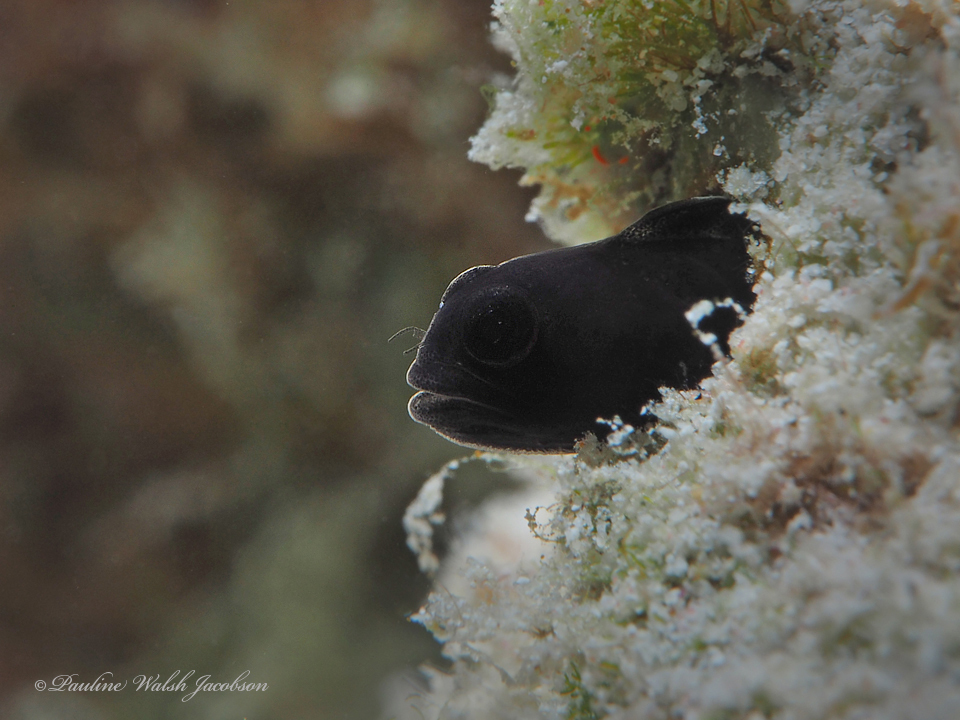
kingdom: Animalia
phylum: Chordata
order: Perciformes
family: Chaenopsidae
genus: Emblemariopsis
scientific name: Emblemariopsis bottomei
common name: Shorthead blenny
